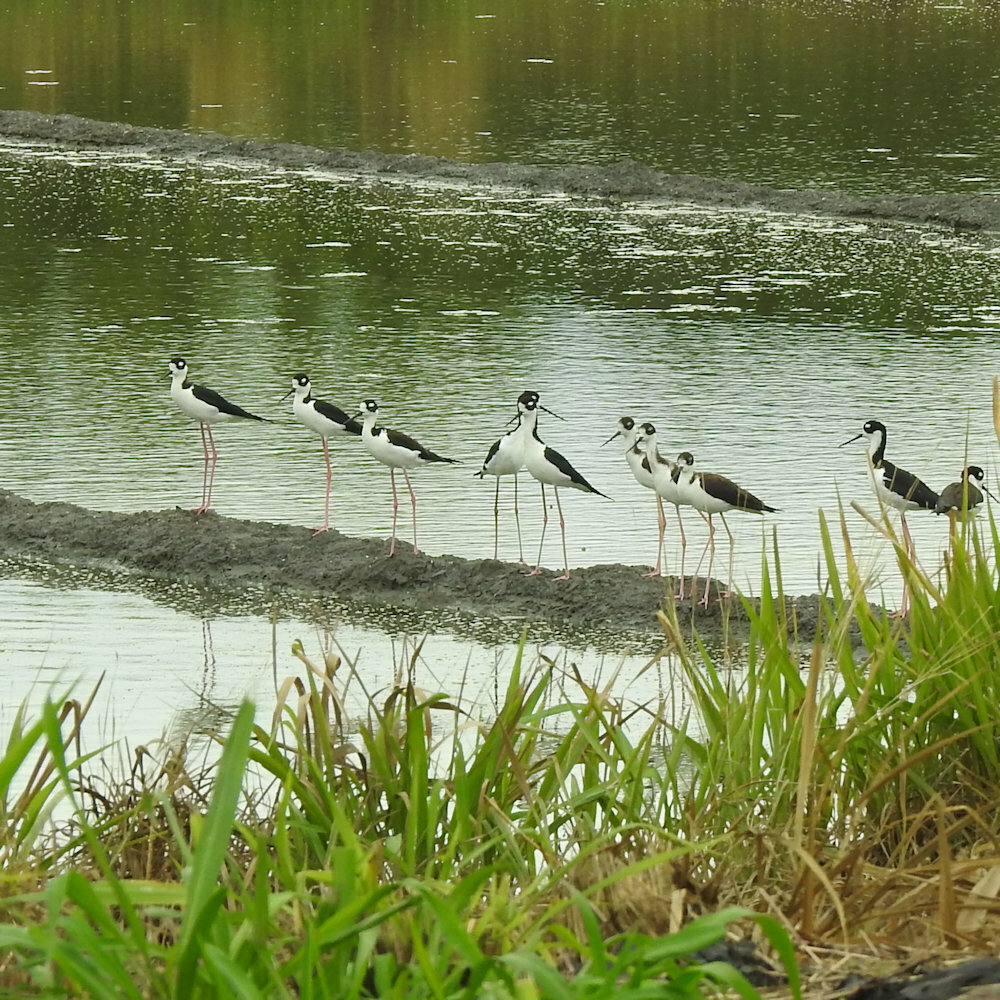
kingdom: Animalia
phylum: Chordata
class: Aves
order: Charadriiformes
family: Recurvirostridae
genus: Himantopus
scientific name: Himantopus mexicanus
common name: Black-necked stilt
